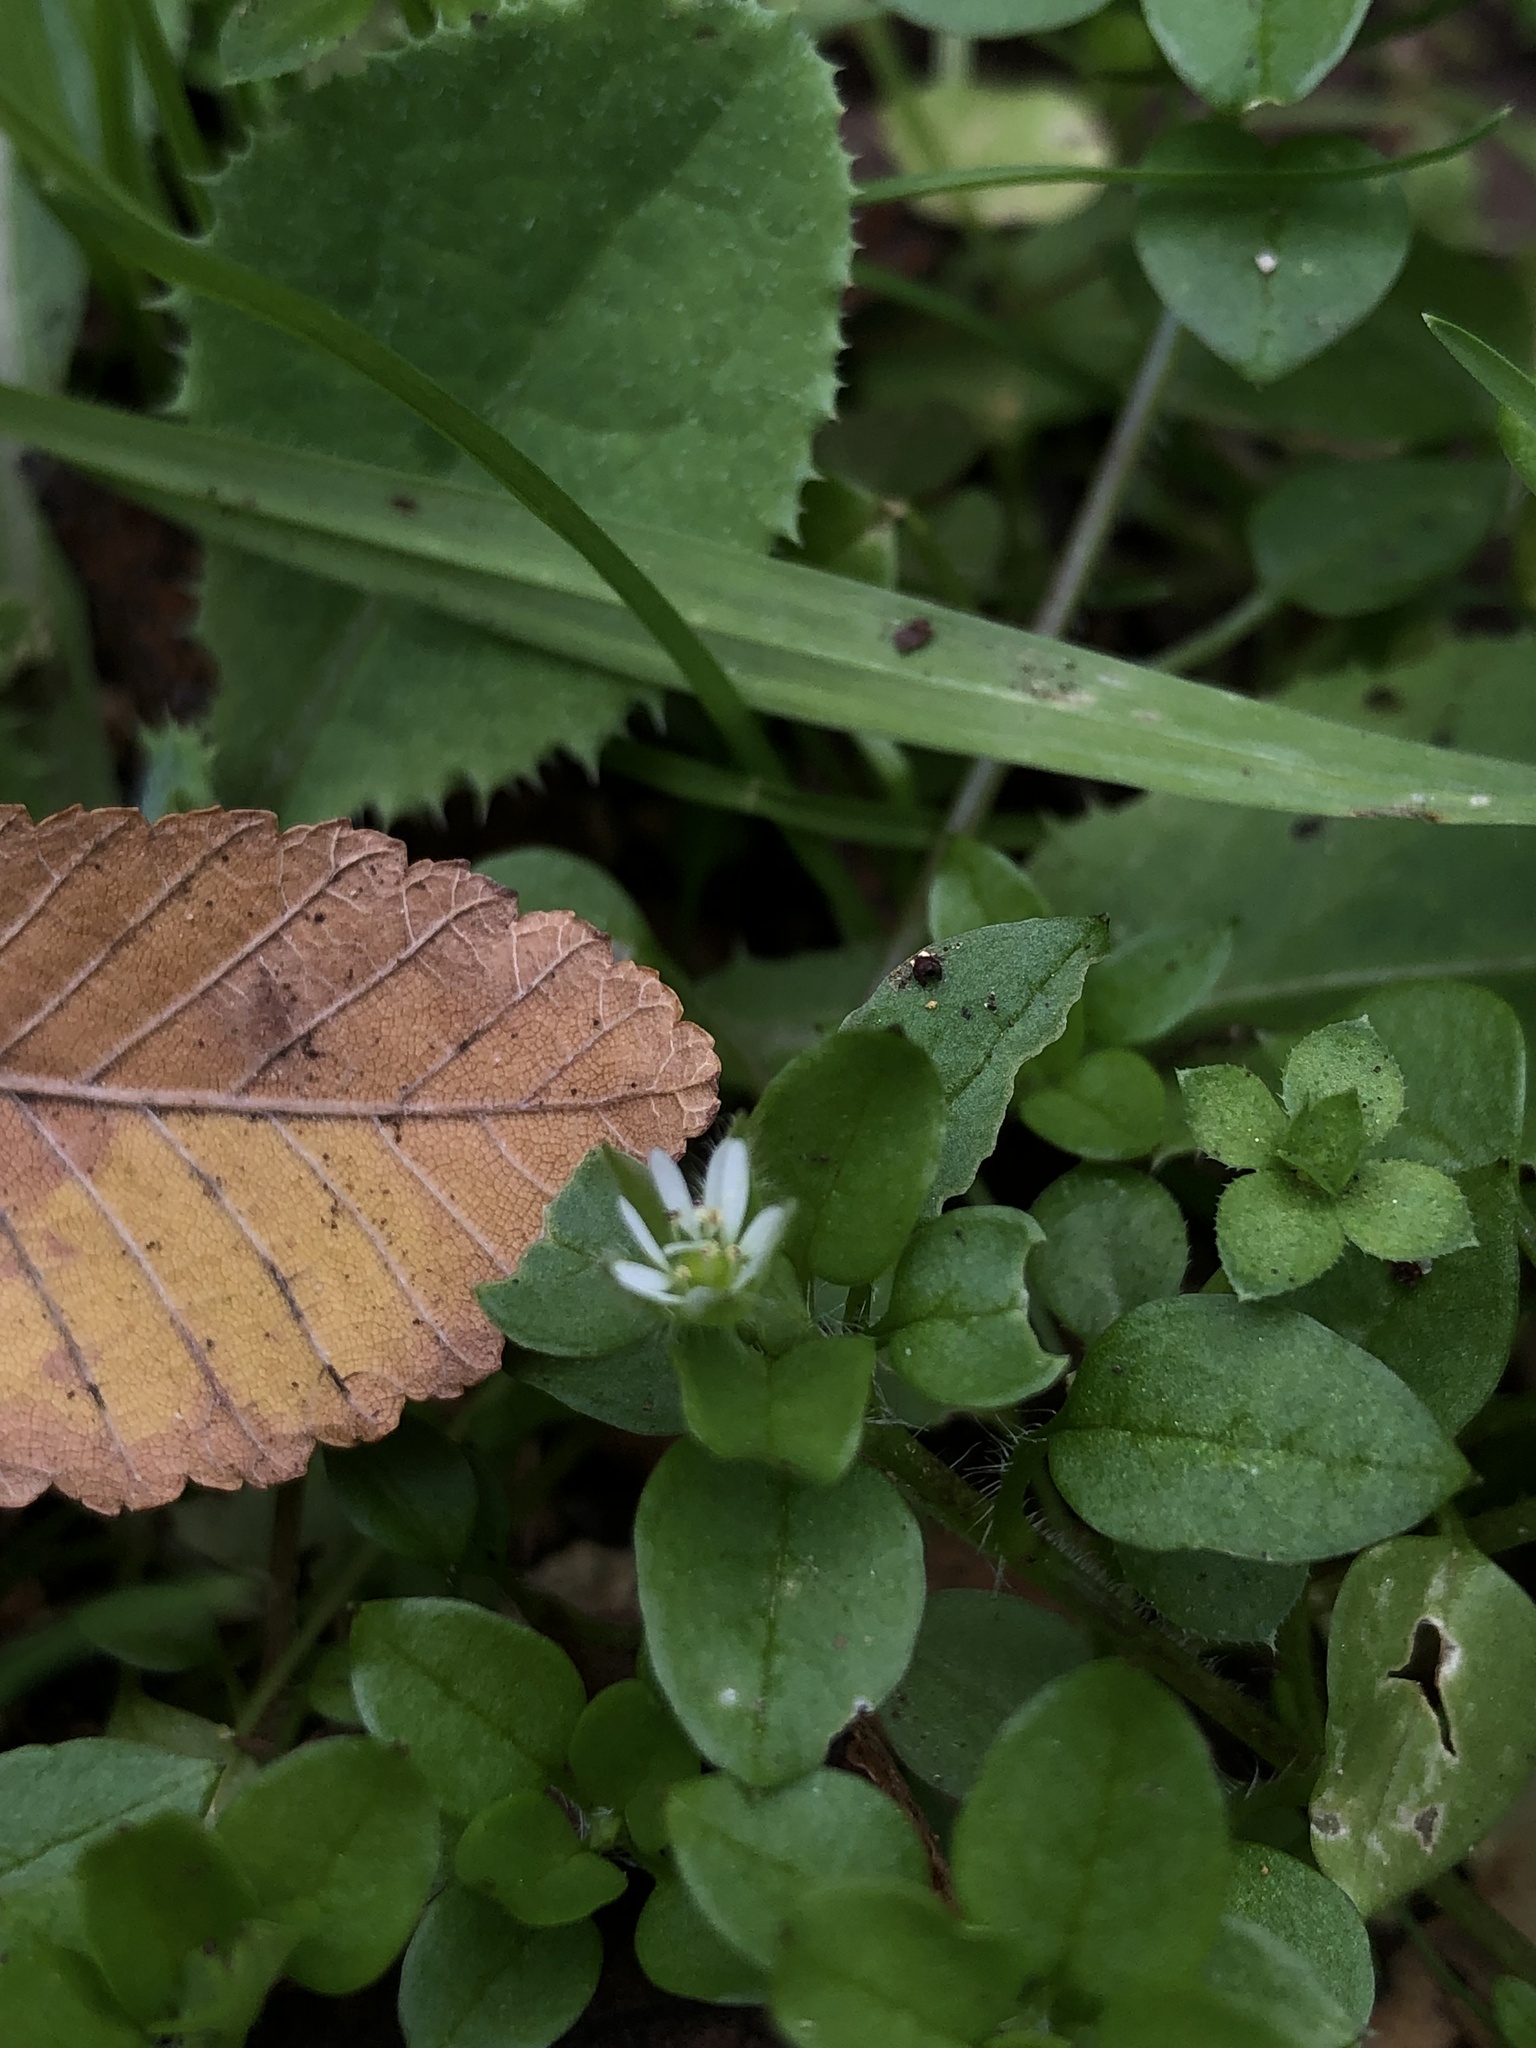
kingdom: Plantae
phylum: Tracheophyta
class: Magnoliopsida
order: Caryophyllales
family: Caryophyllaceae
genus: Stellaria
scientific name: Stellaria media
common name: Common chickweed
